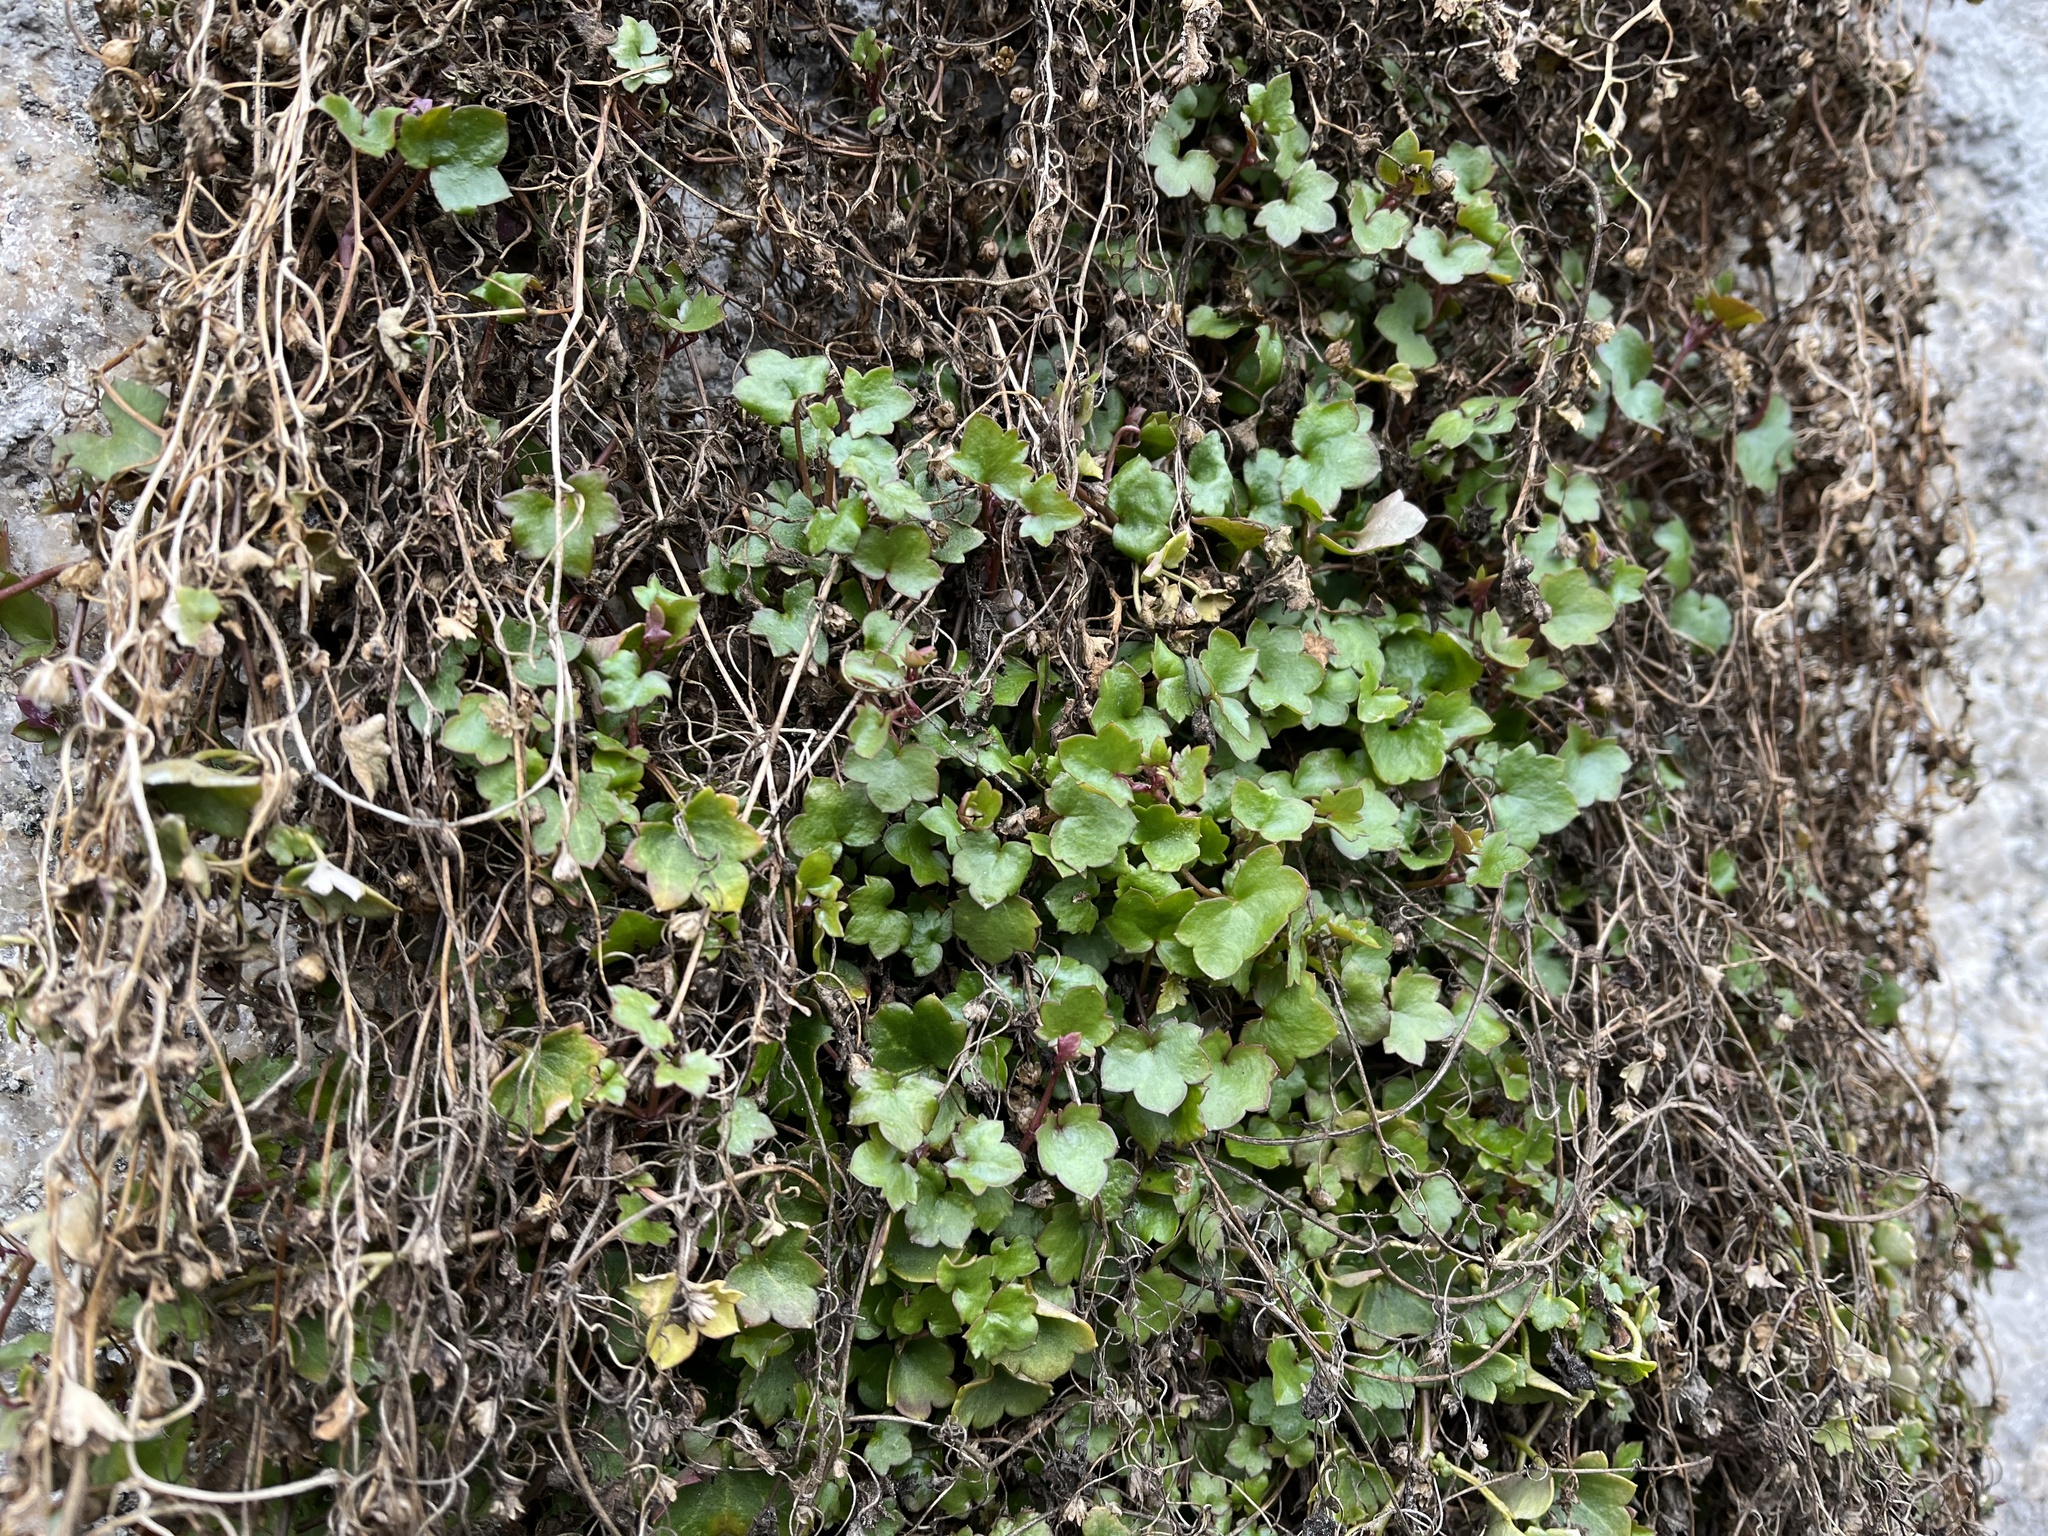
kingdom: Plantae
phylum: Tracheophyta
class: Magnoliopsida
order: Lamiales
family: Plantaginaceae
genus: Cymbalaria
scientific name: Cymbalaria muralis
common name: Ivy-leaved toadflax
